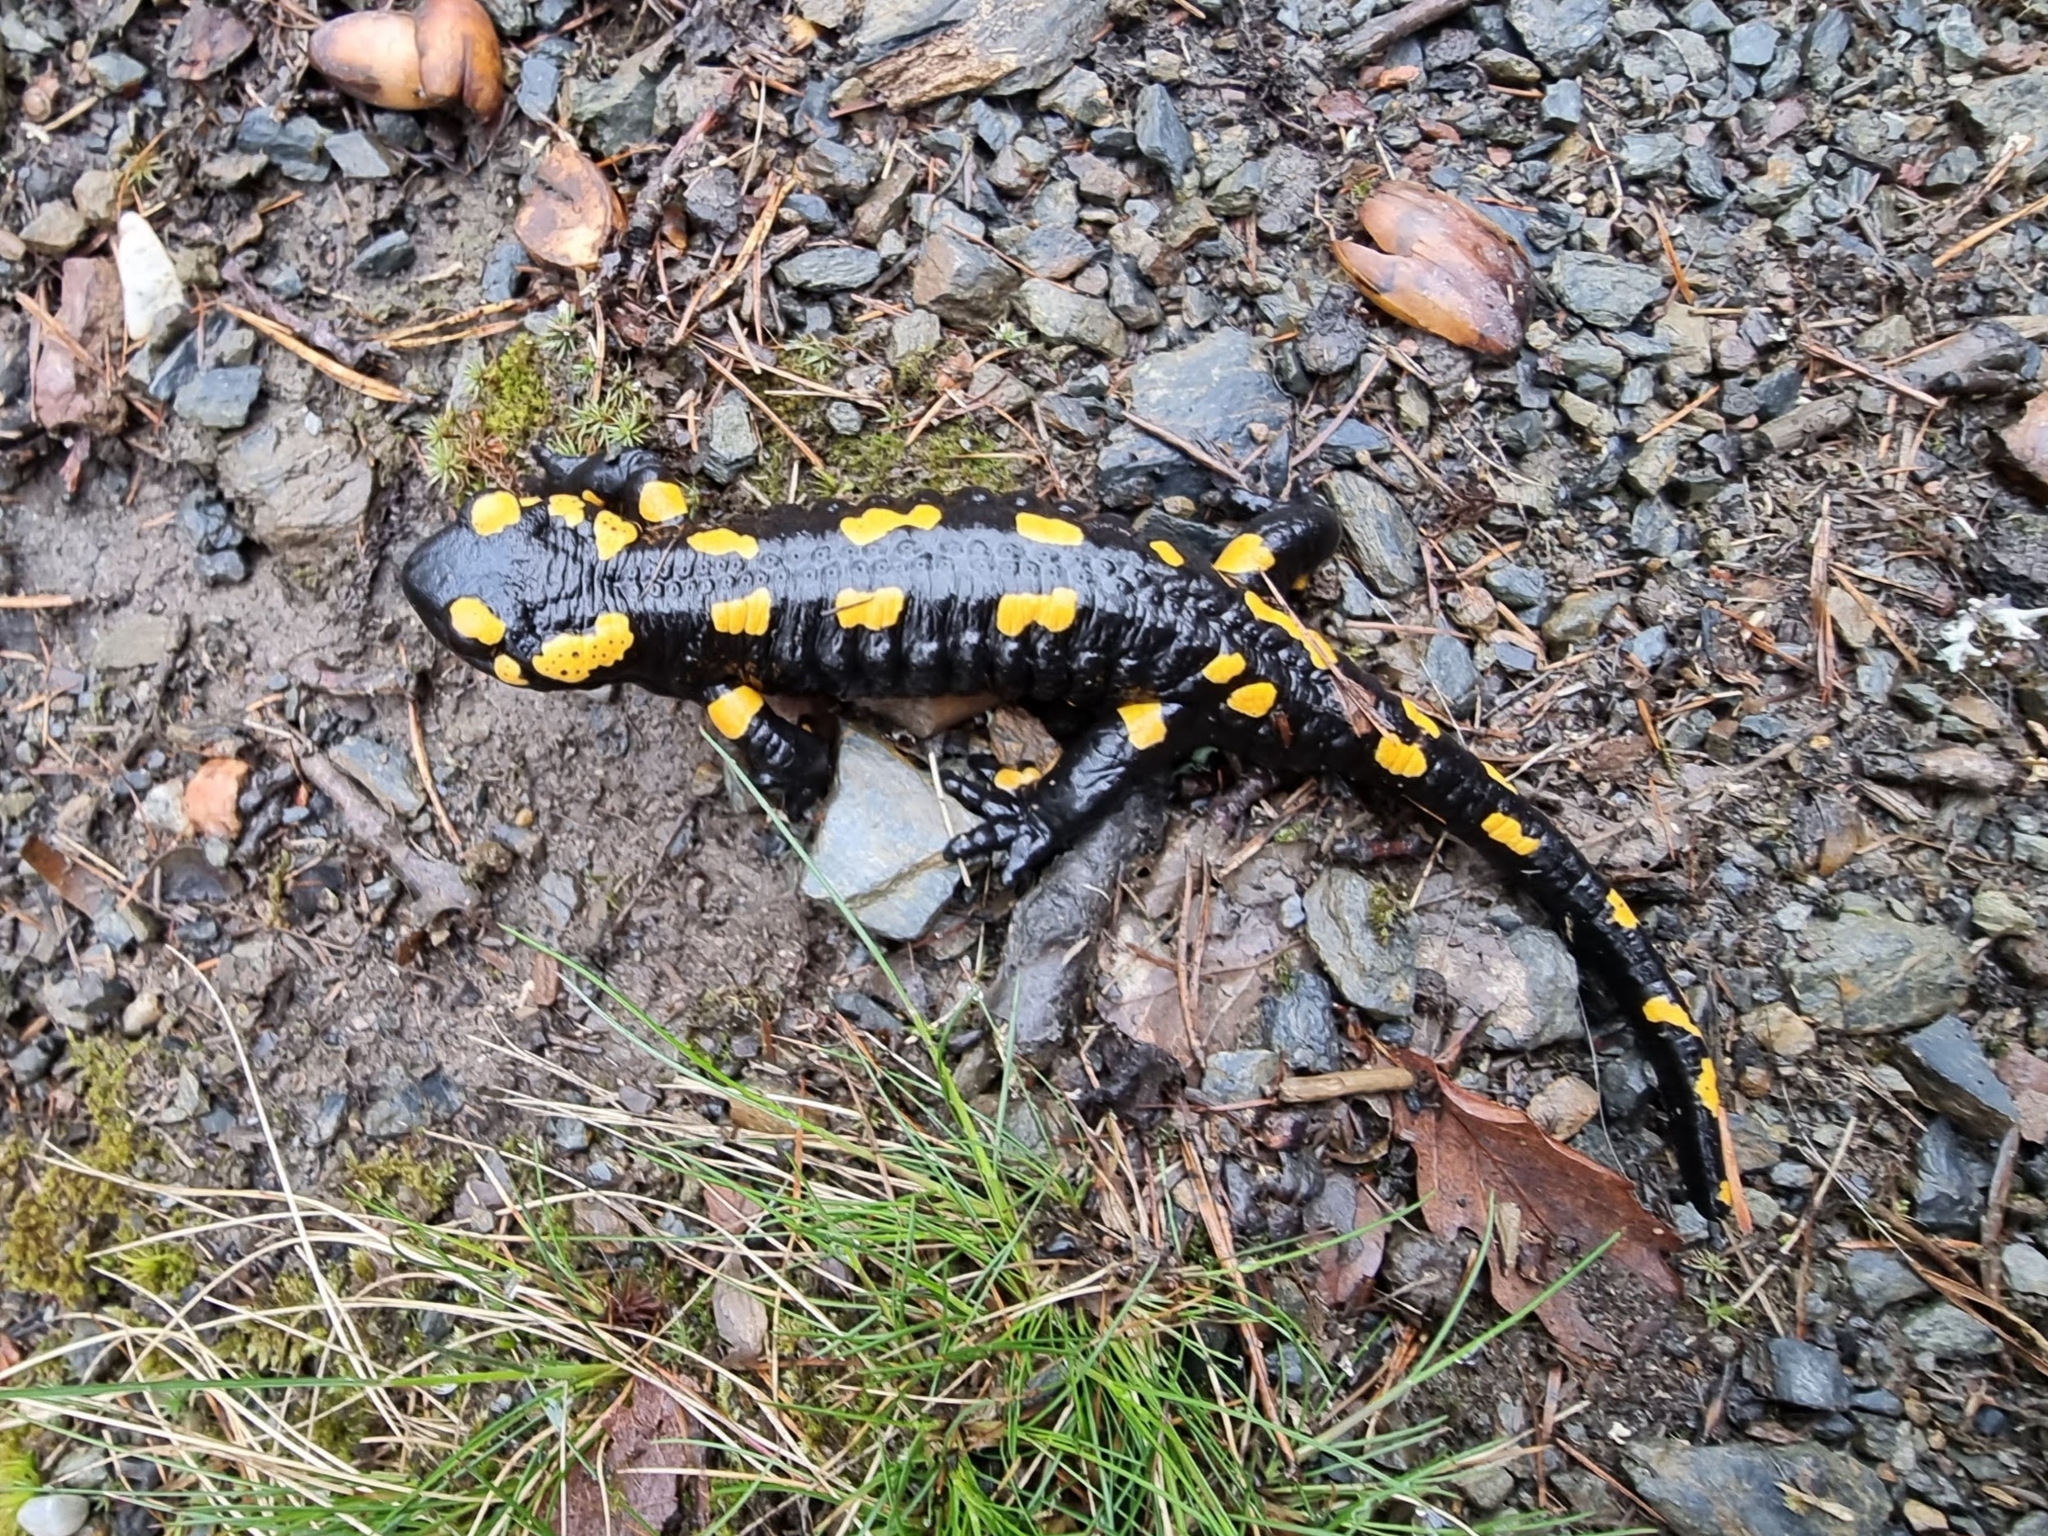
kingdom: Animalia
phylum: Chordata
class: Amphibia
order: Caudata
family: Salamandridae
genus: Salamandra
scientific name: Salamandra salamandra
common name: Fire salamander
